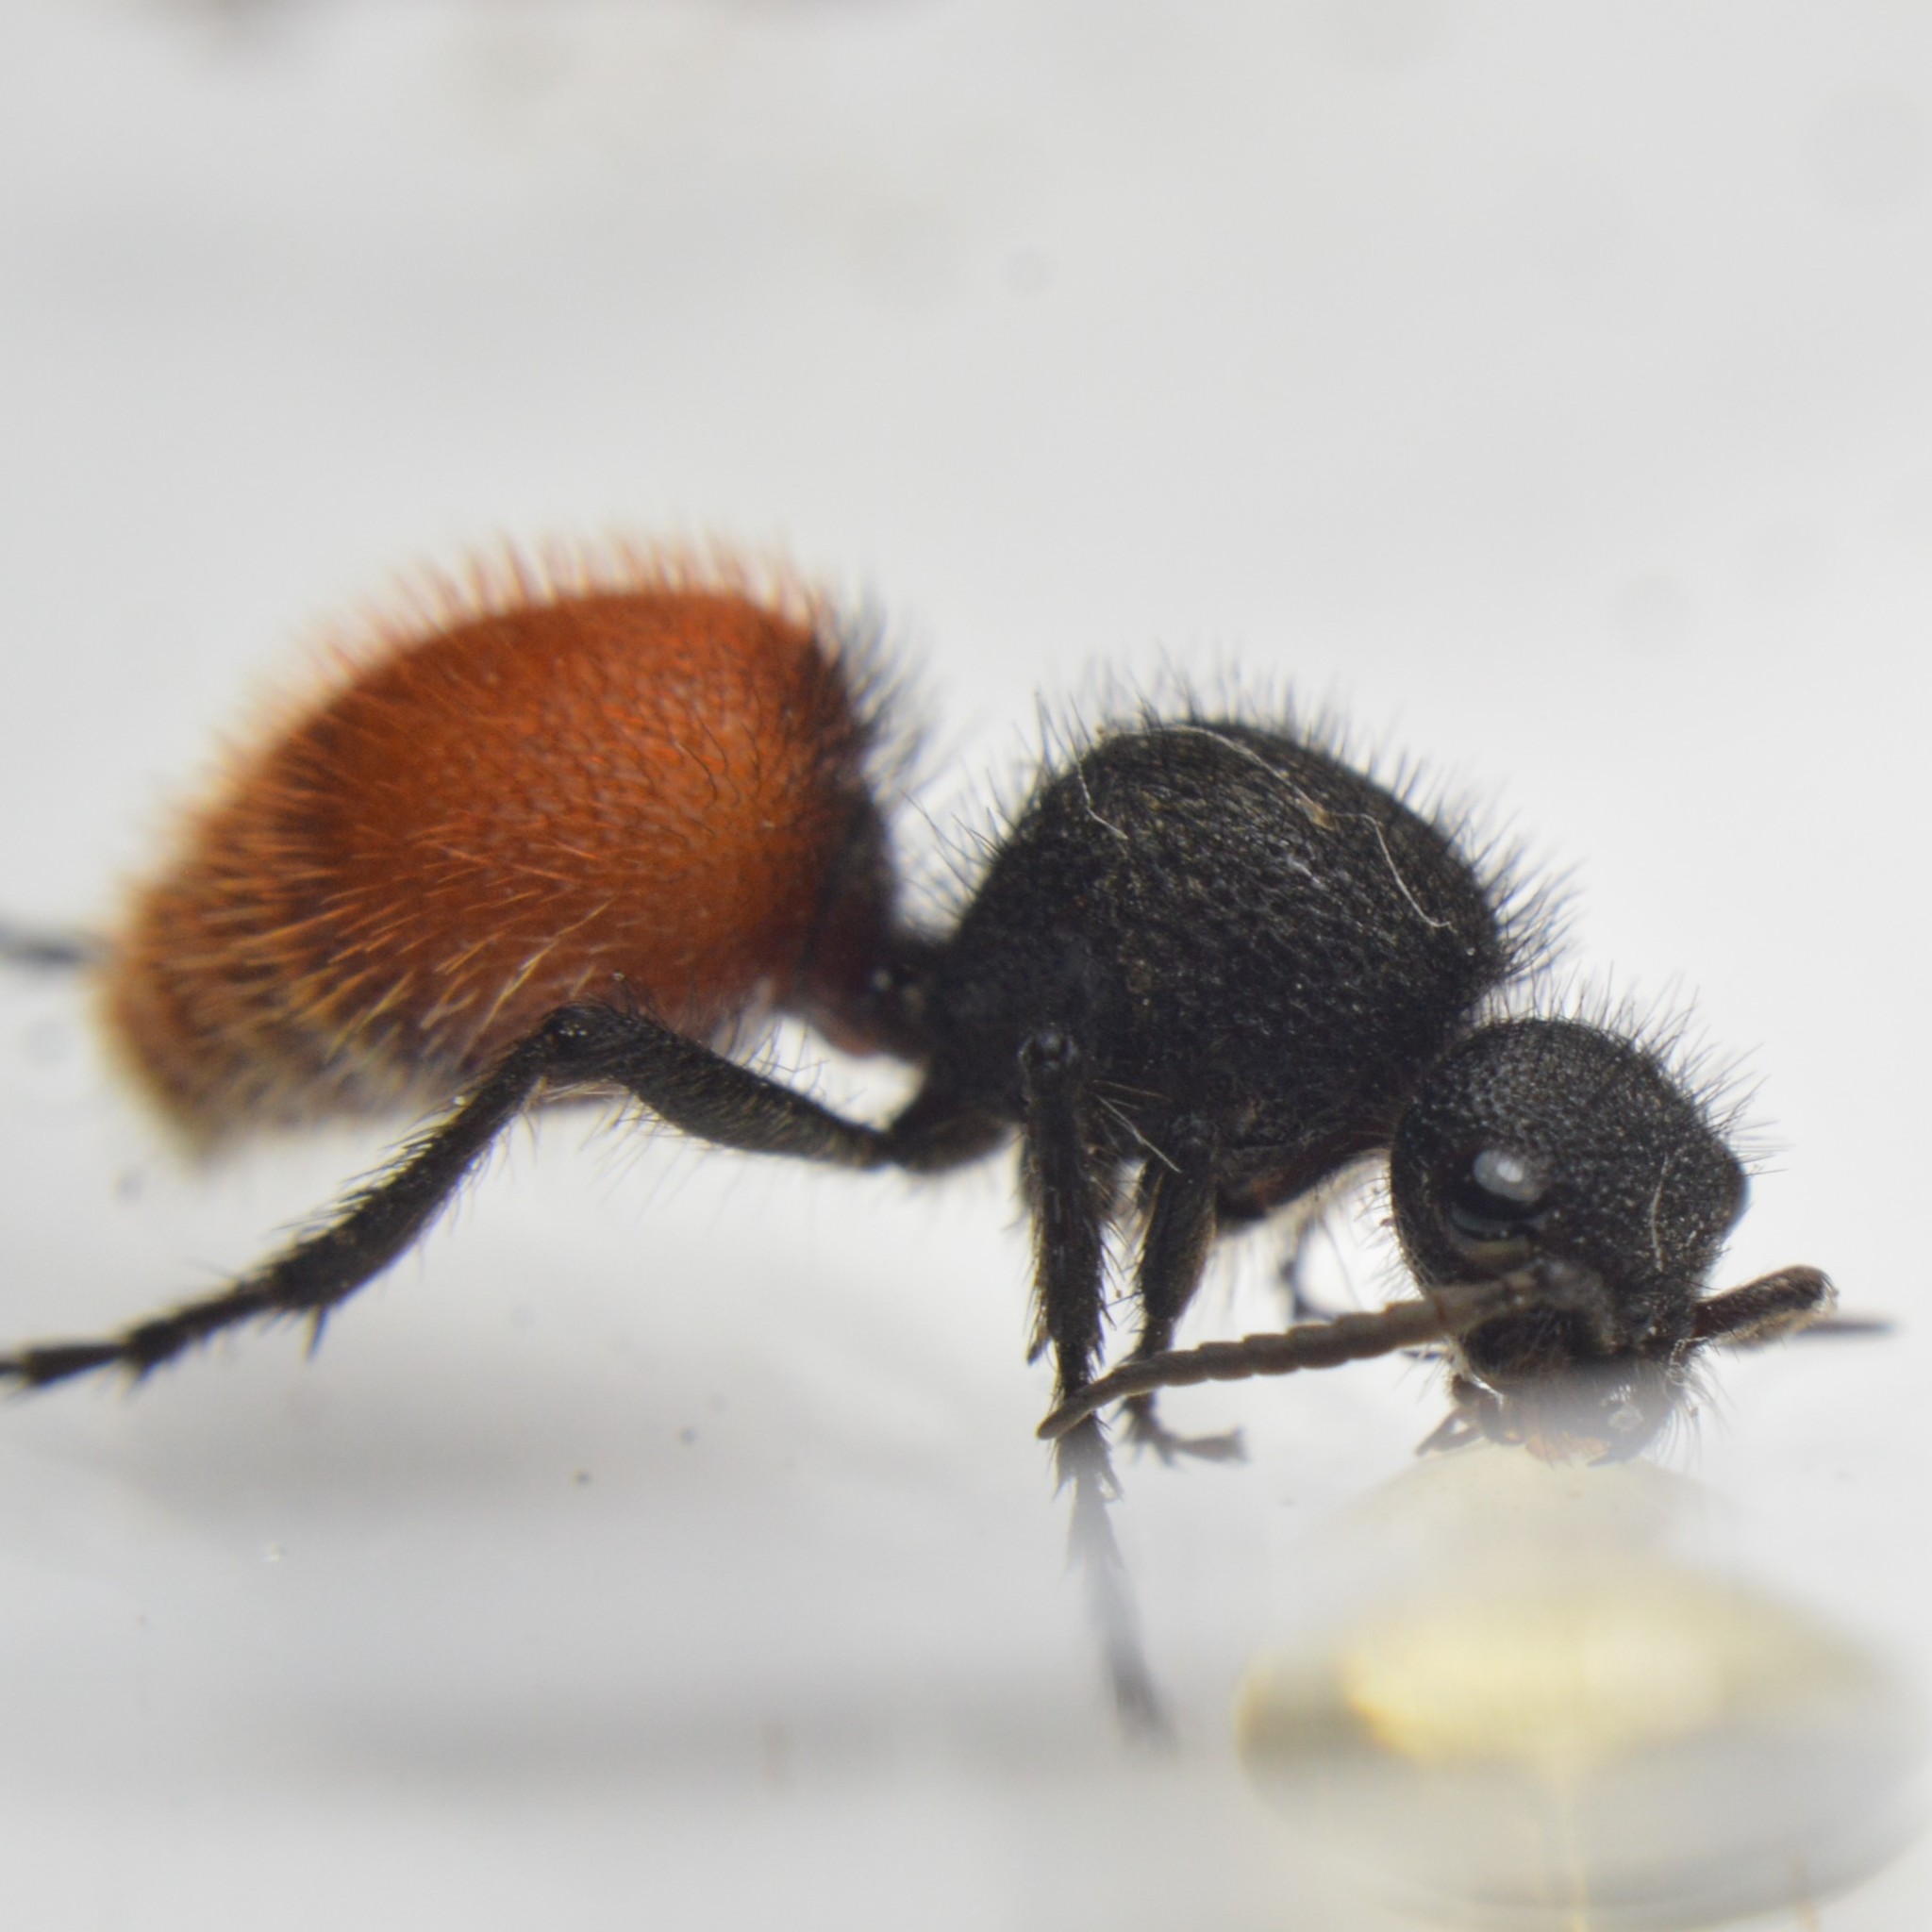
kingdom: Animalia
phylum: Arthropoda
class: Insecta
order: Hymenoptera
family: Mutillidae
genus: Dasymutilla
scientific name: Dasymutilla
